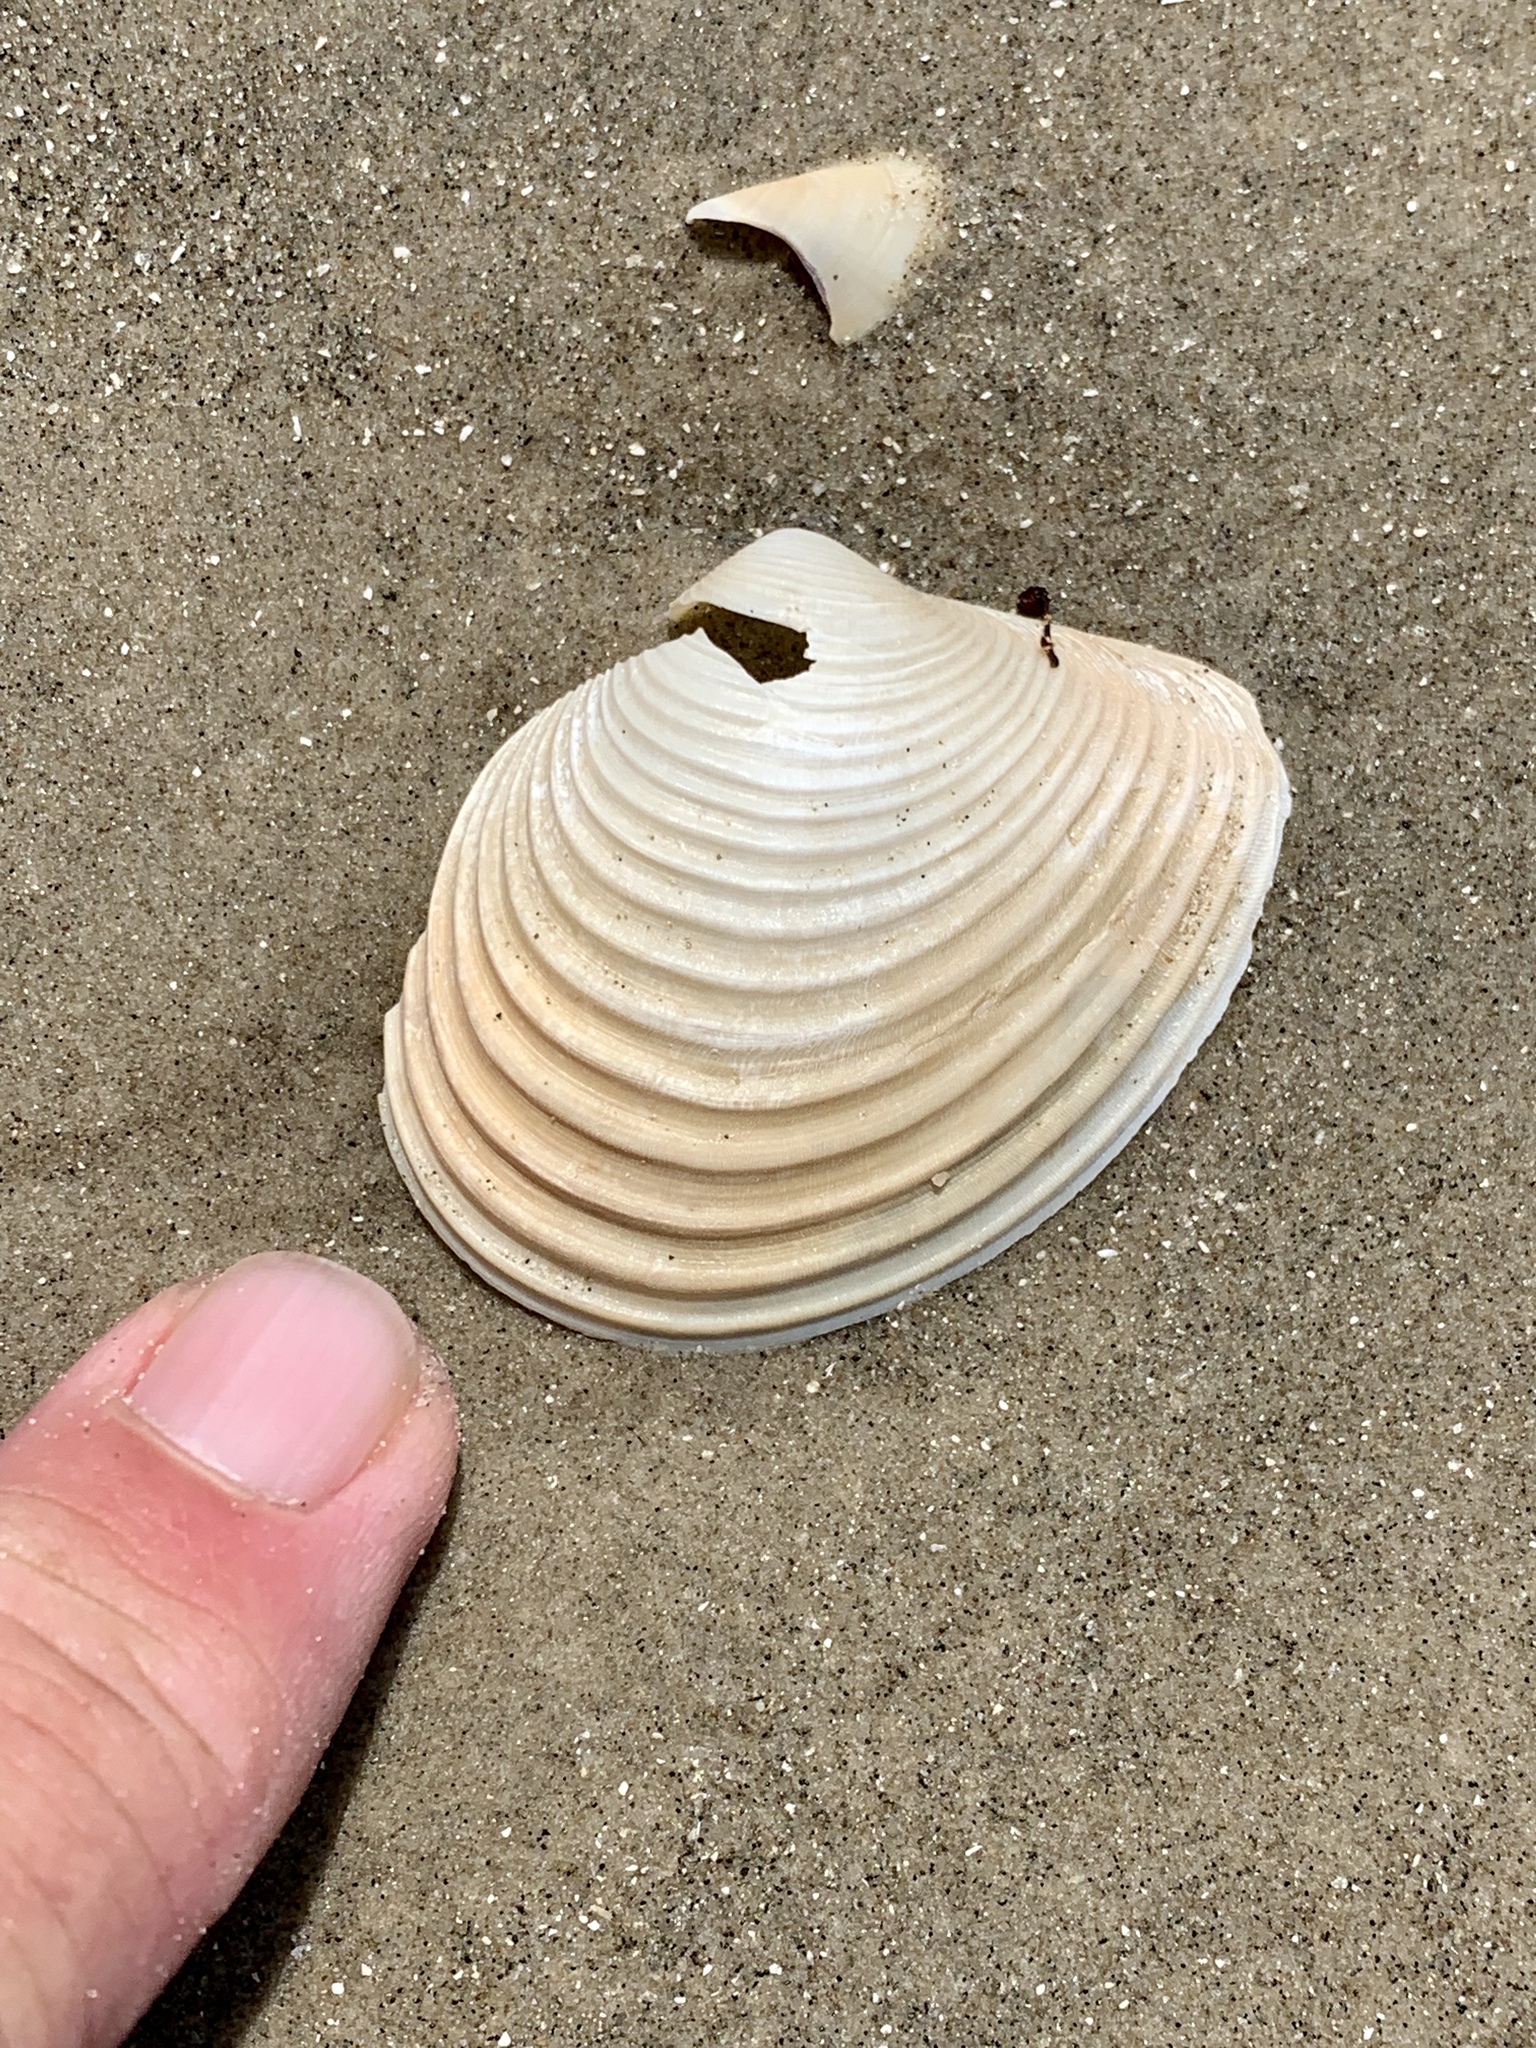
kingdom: Animalia
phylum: Mollusca
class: Bivalvia
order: Venerida
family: Anatinellidae
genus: Raeta
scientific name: Raeta plicatella
